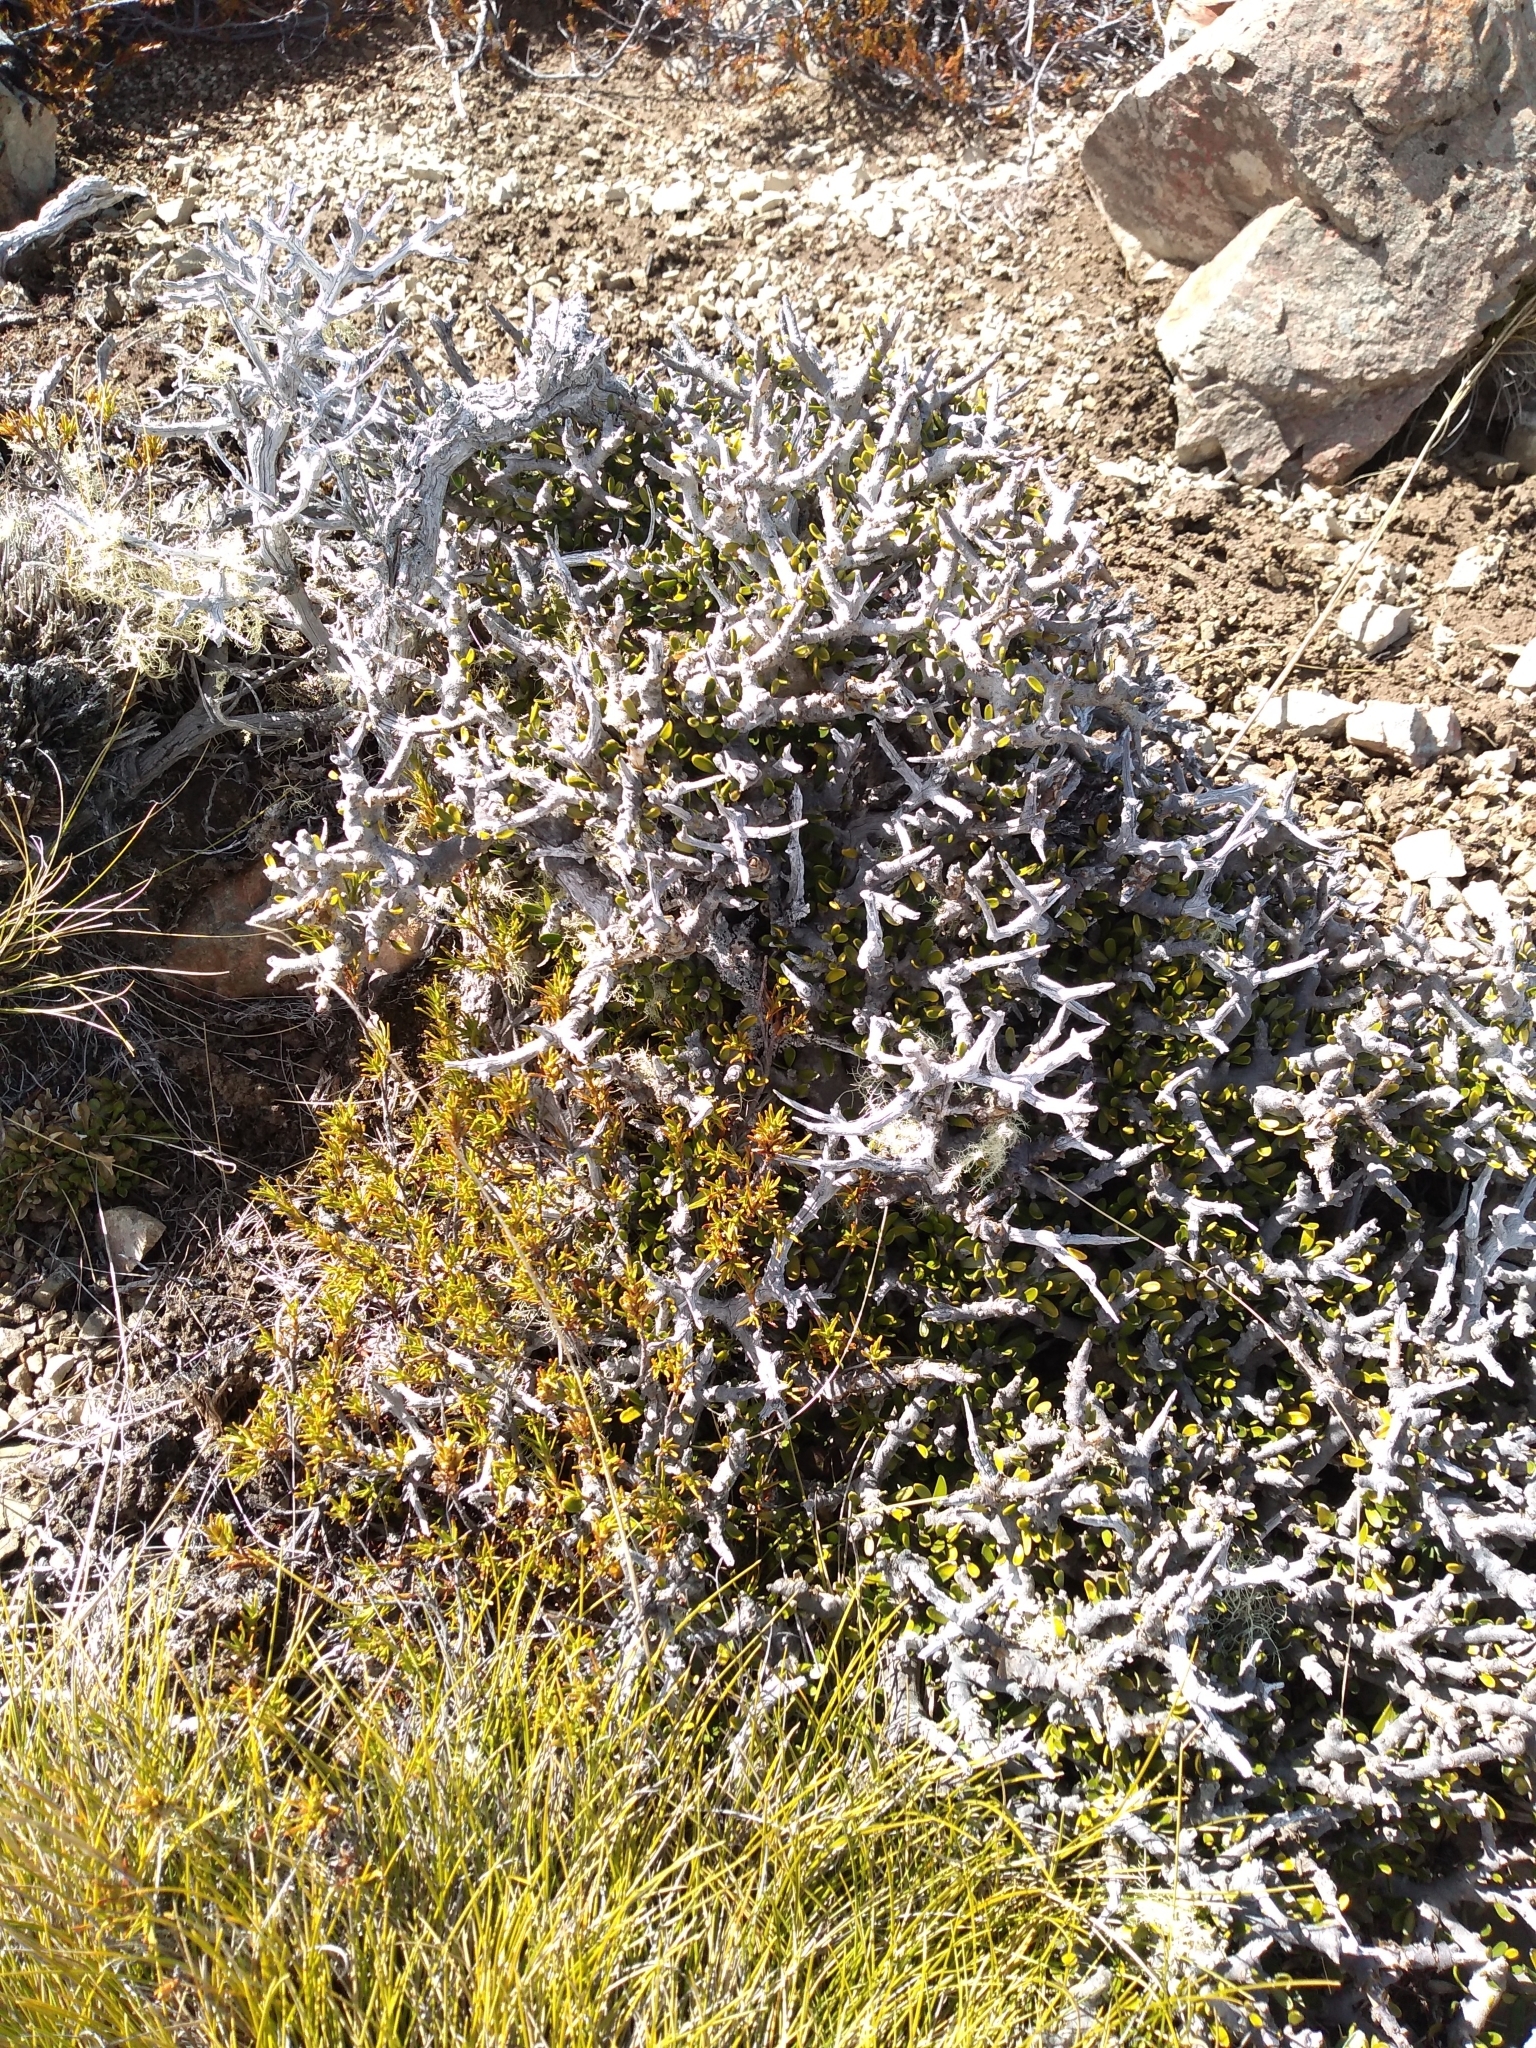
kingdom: Plantae
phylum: Tracheophyta
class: Magnoliopsida
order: Malpighiales
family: Violaceae
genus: Melicytus
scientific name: Melicytus alpinus
